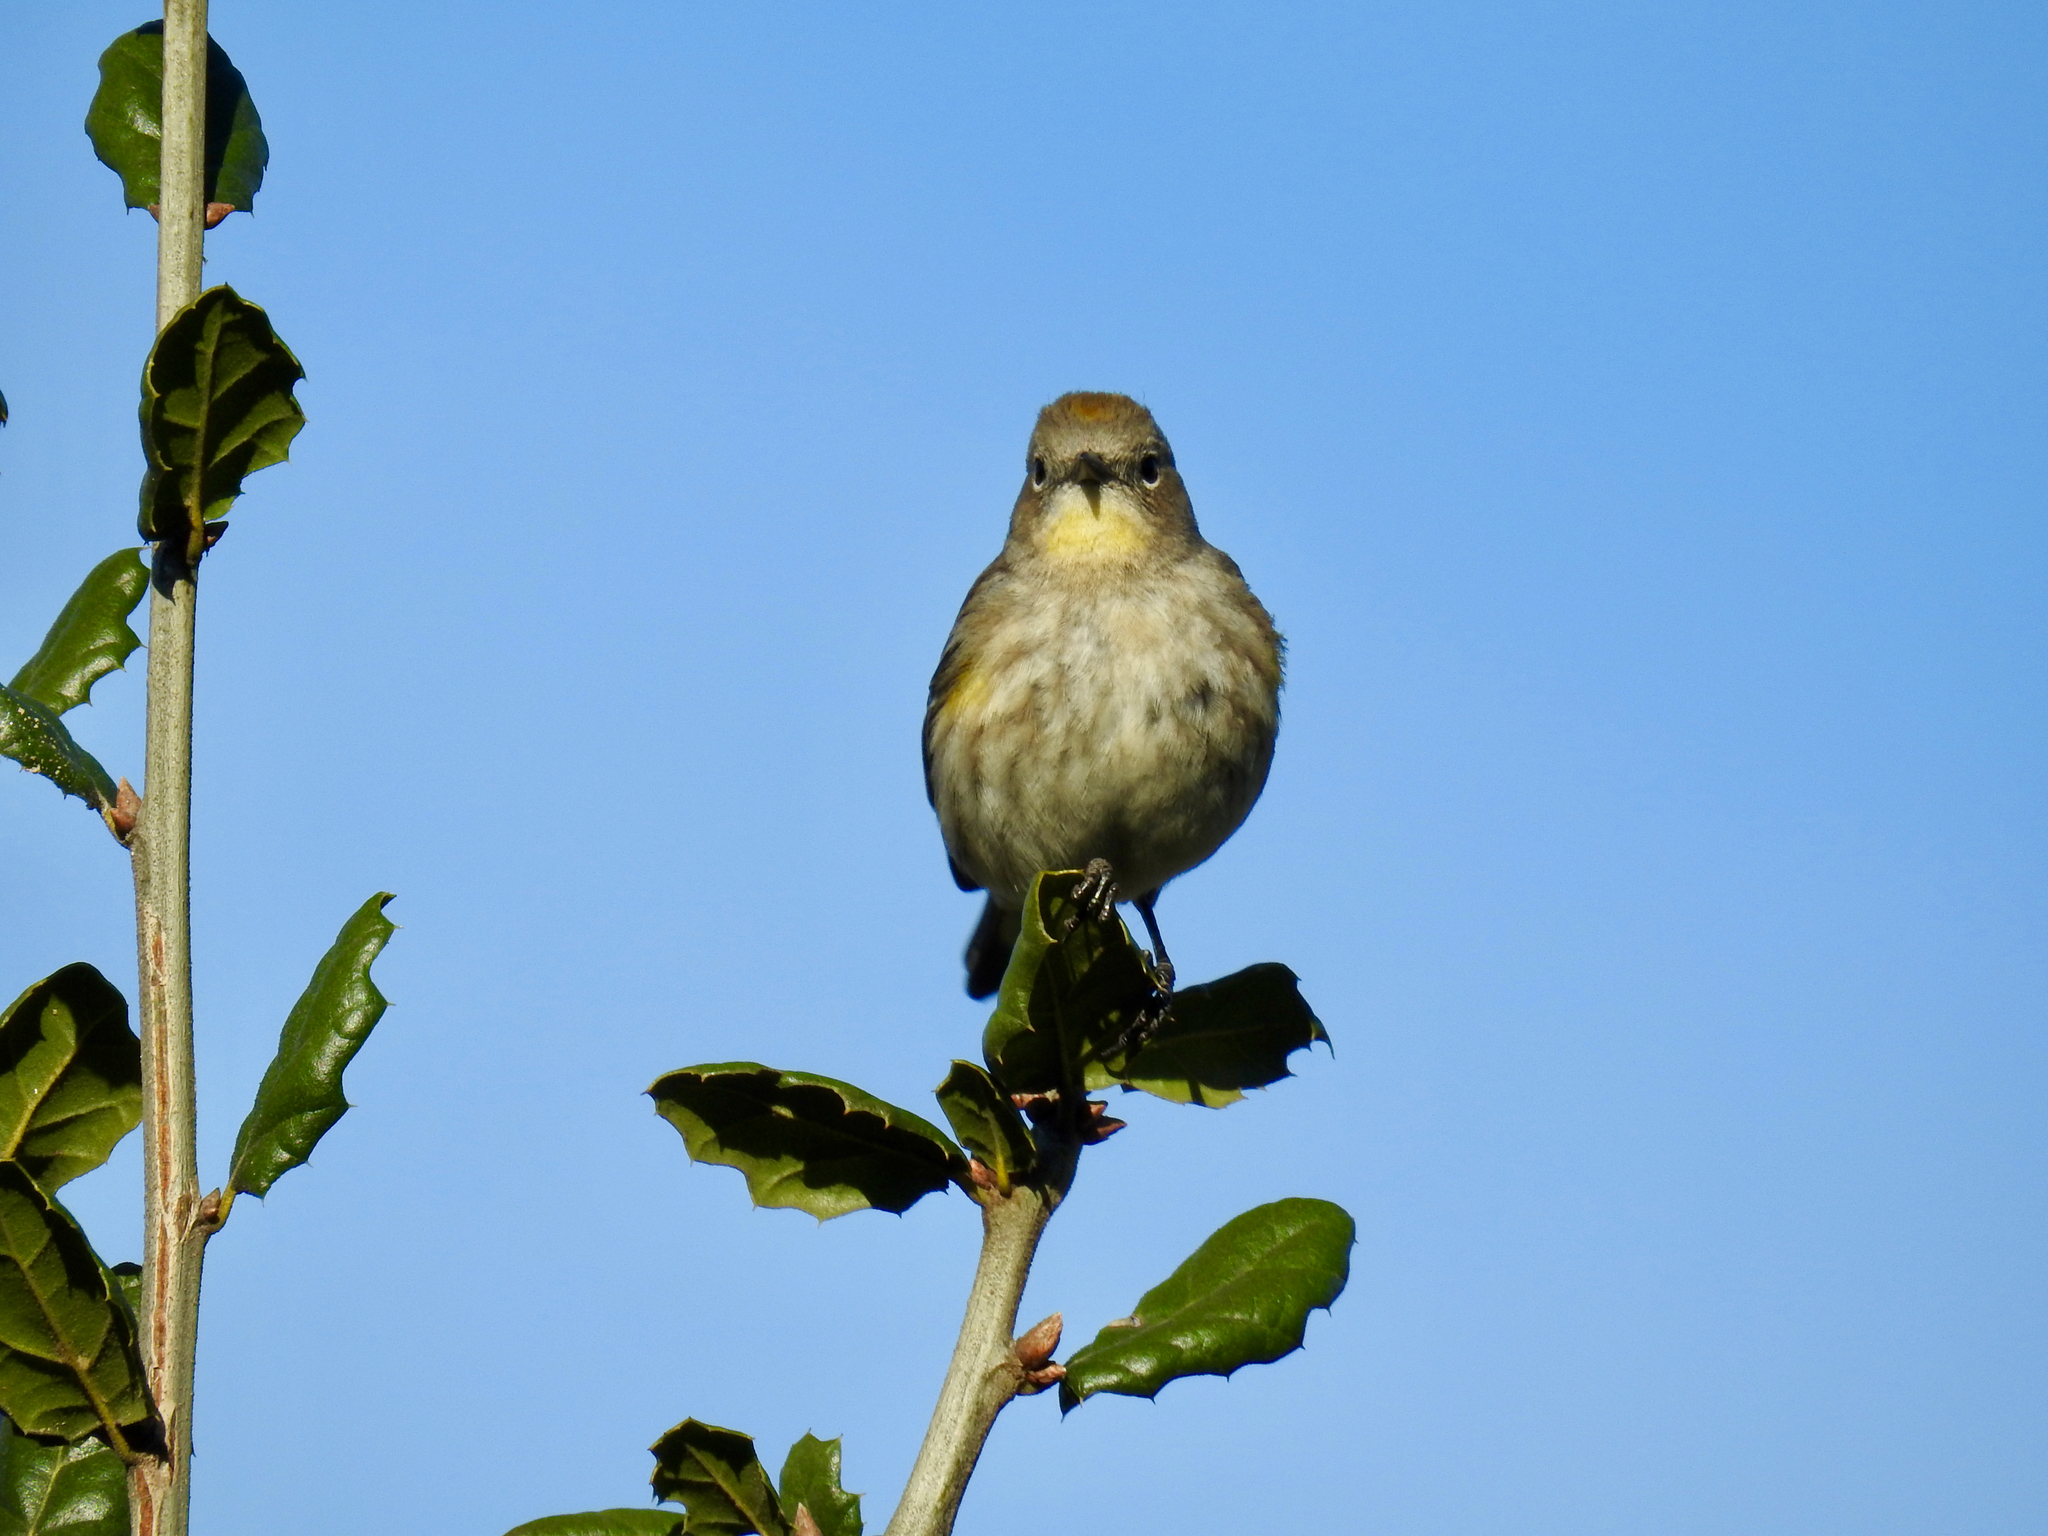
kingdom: Animalia
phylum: Chordata
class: Aves
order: Passeriformes
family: Parulidae
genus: Setophaga
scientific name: Setophaga coronata
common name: Myrtle warbler
